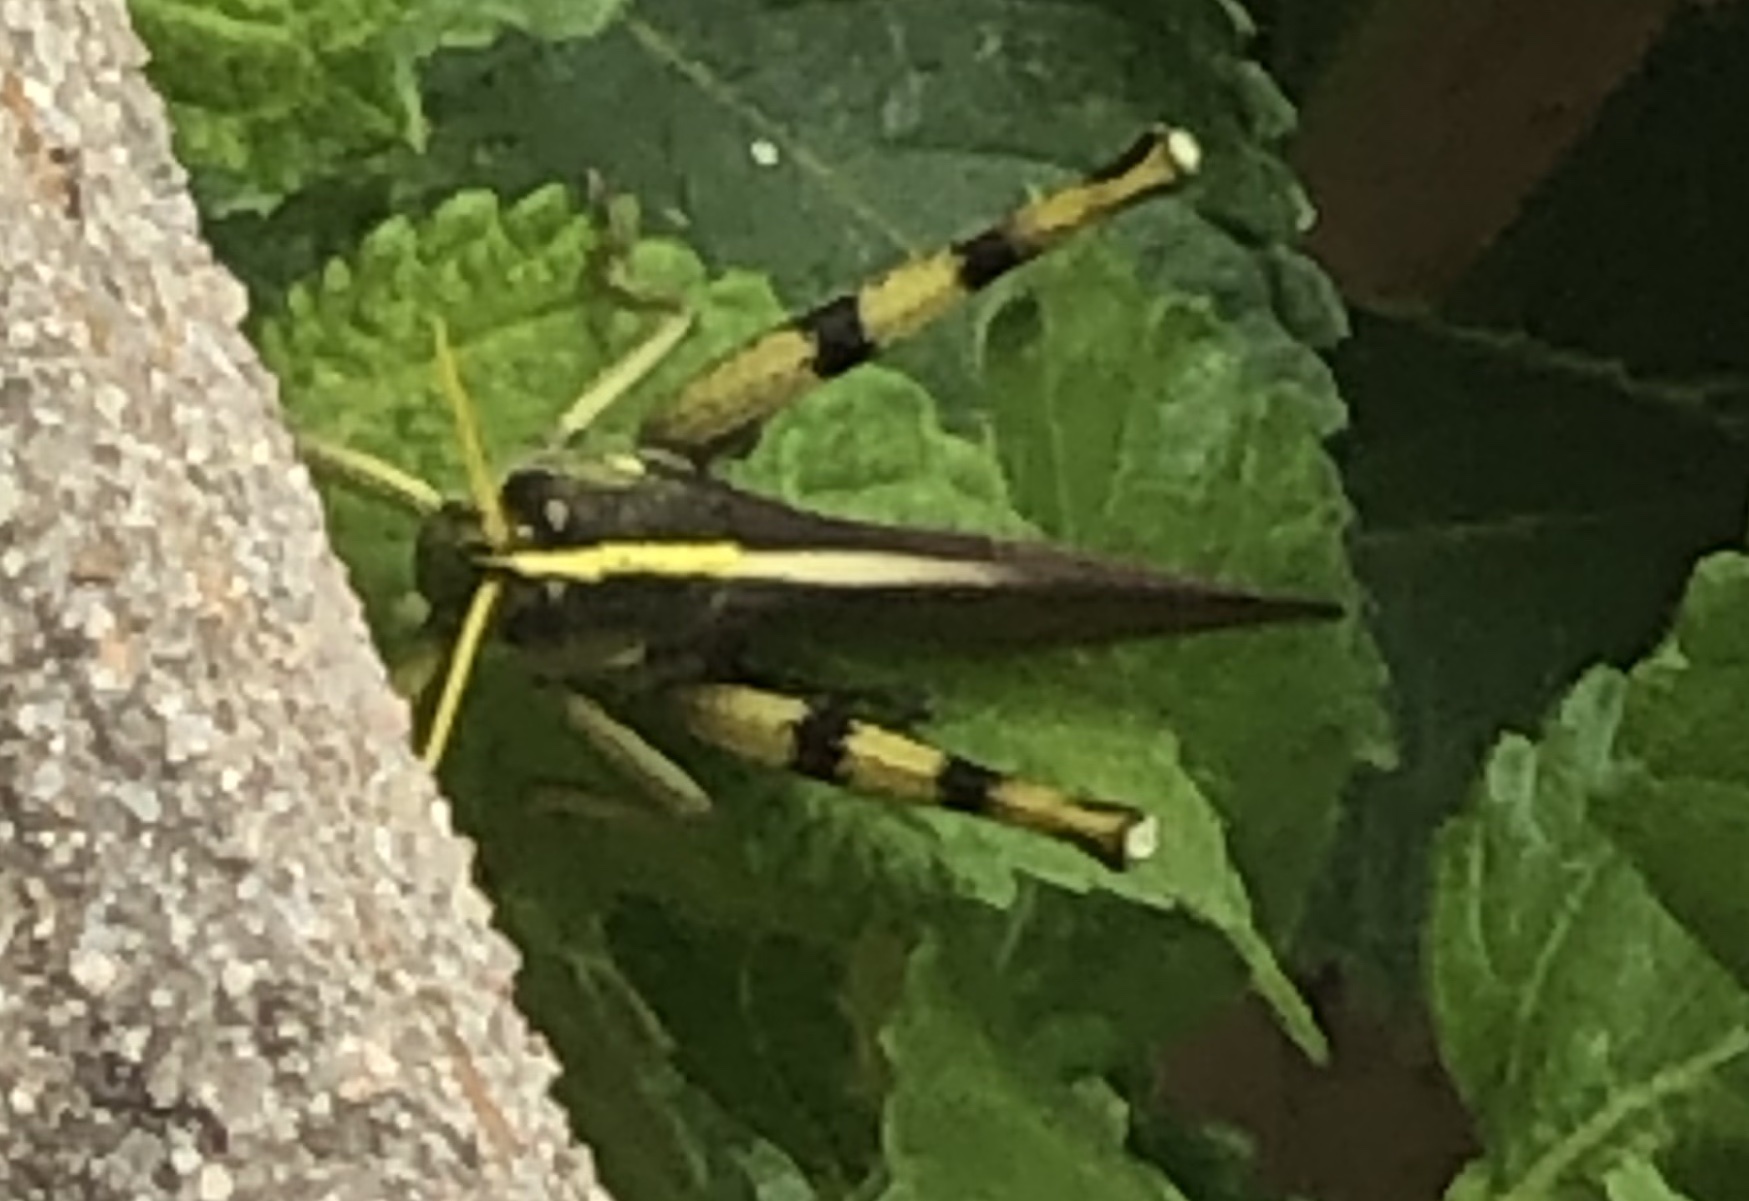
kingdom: Animalia
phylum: Arthropoda
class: Insecta
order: Orthoptera
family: Acrididae
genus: Schistocerca
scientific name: Schistocerca obscura
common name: Obscure bird grasshopper
